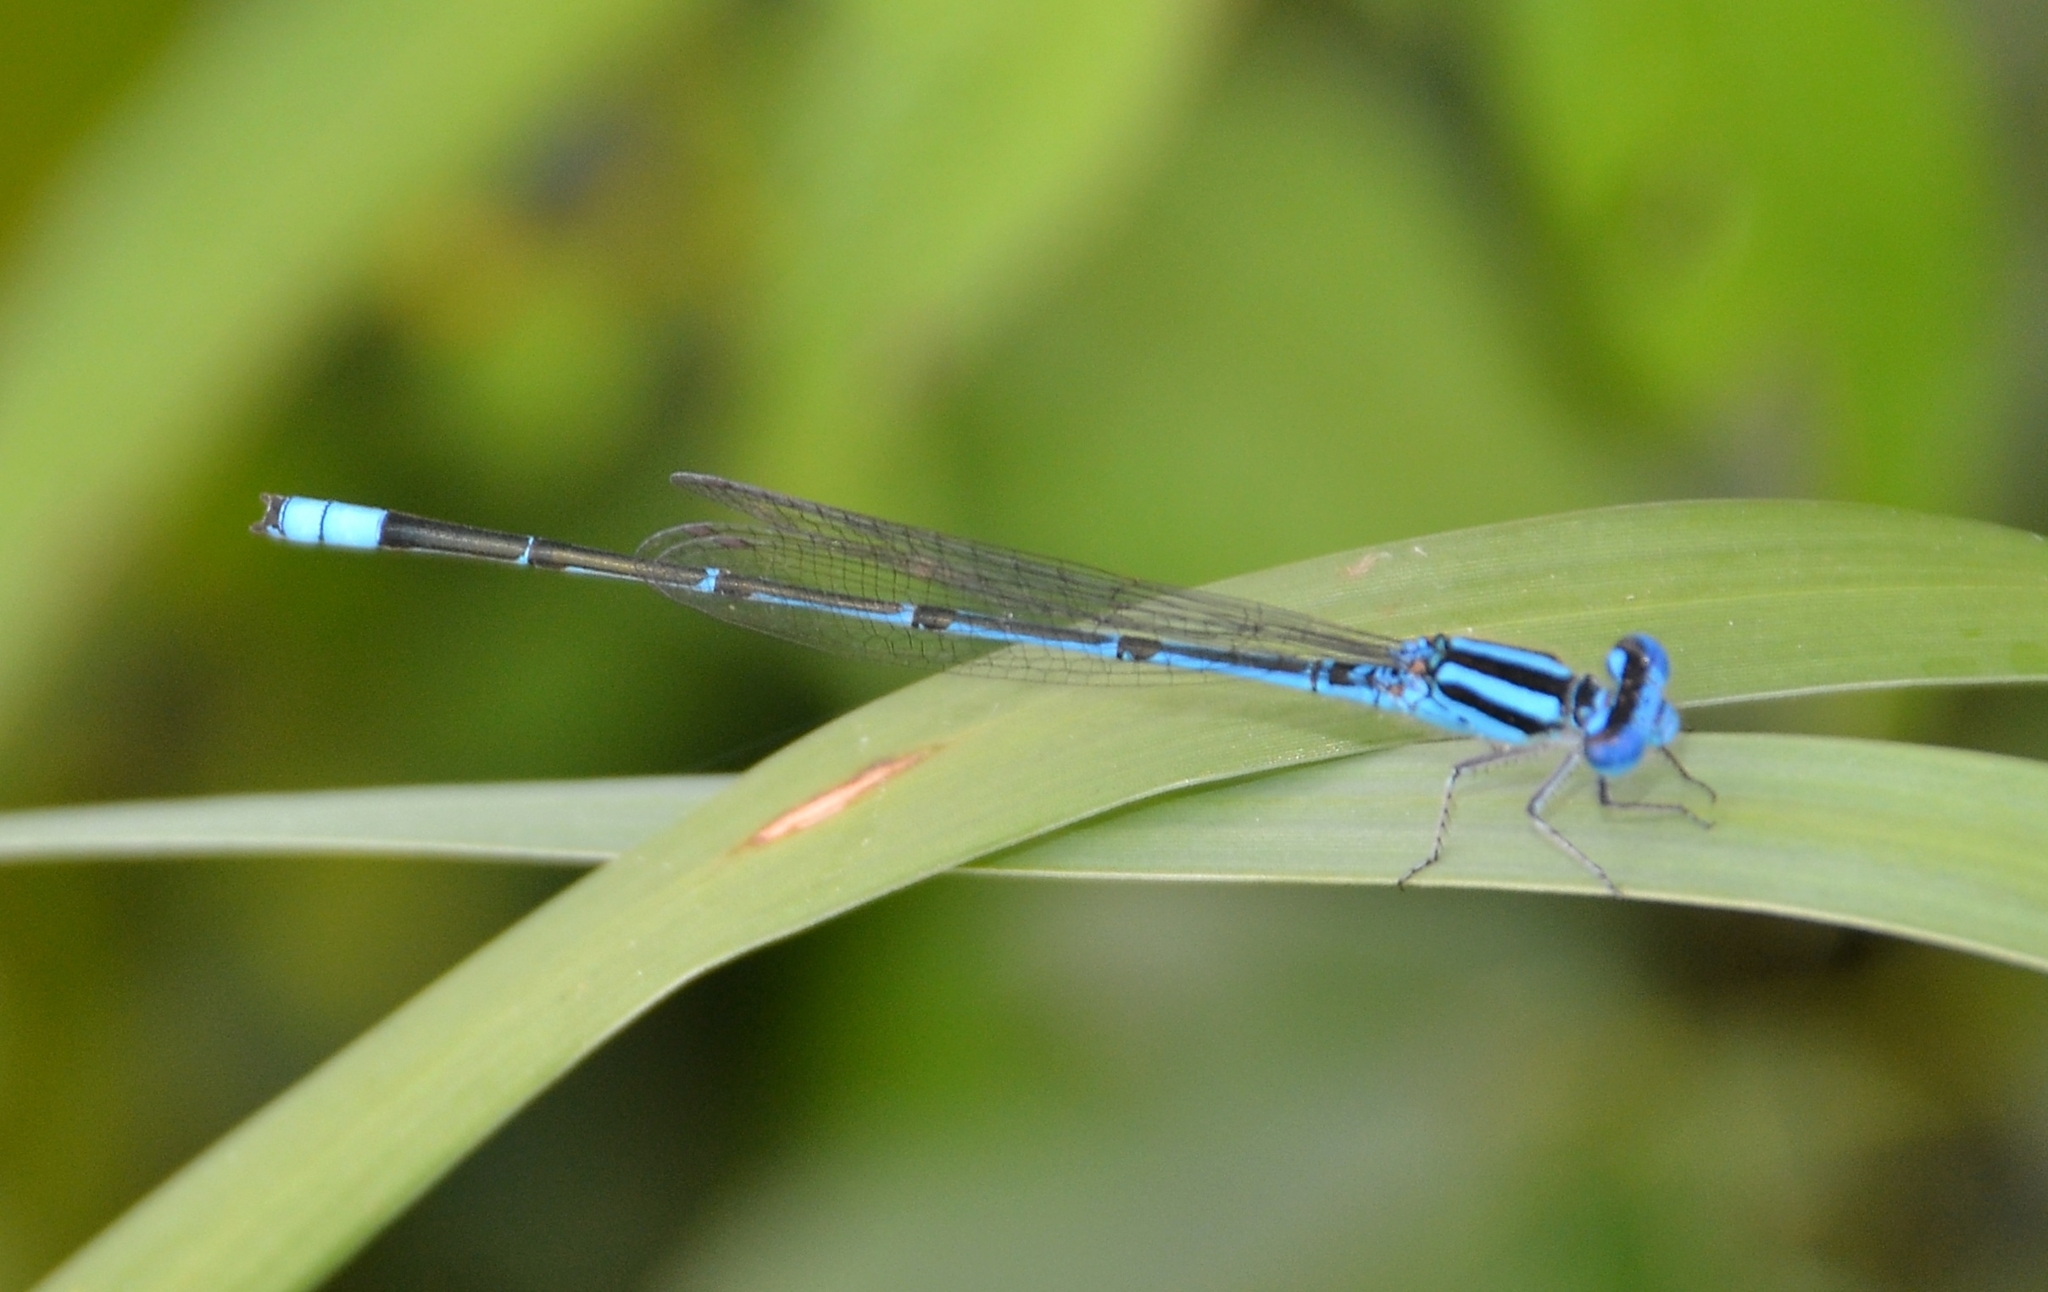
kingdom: Animalia
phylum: Arthropoda
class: Insecta
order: Odonata
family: Coenagrionidae
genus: Pseudagrion
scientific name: Pseudagrion malabaricum
